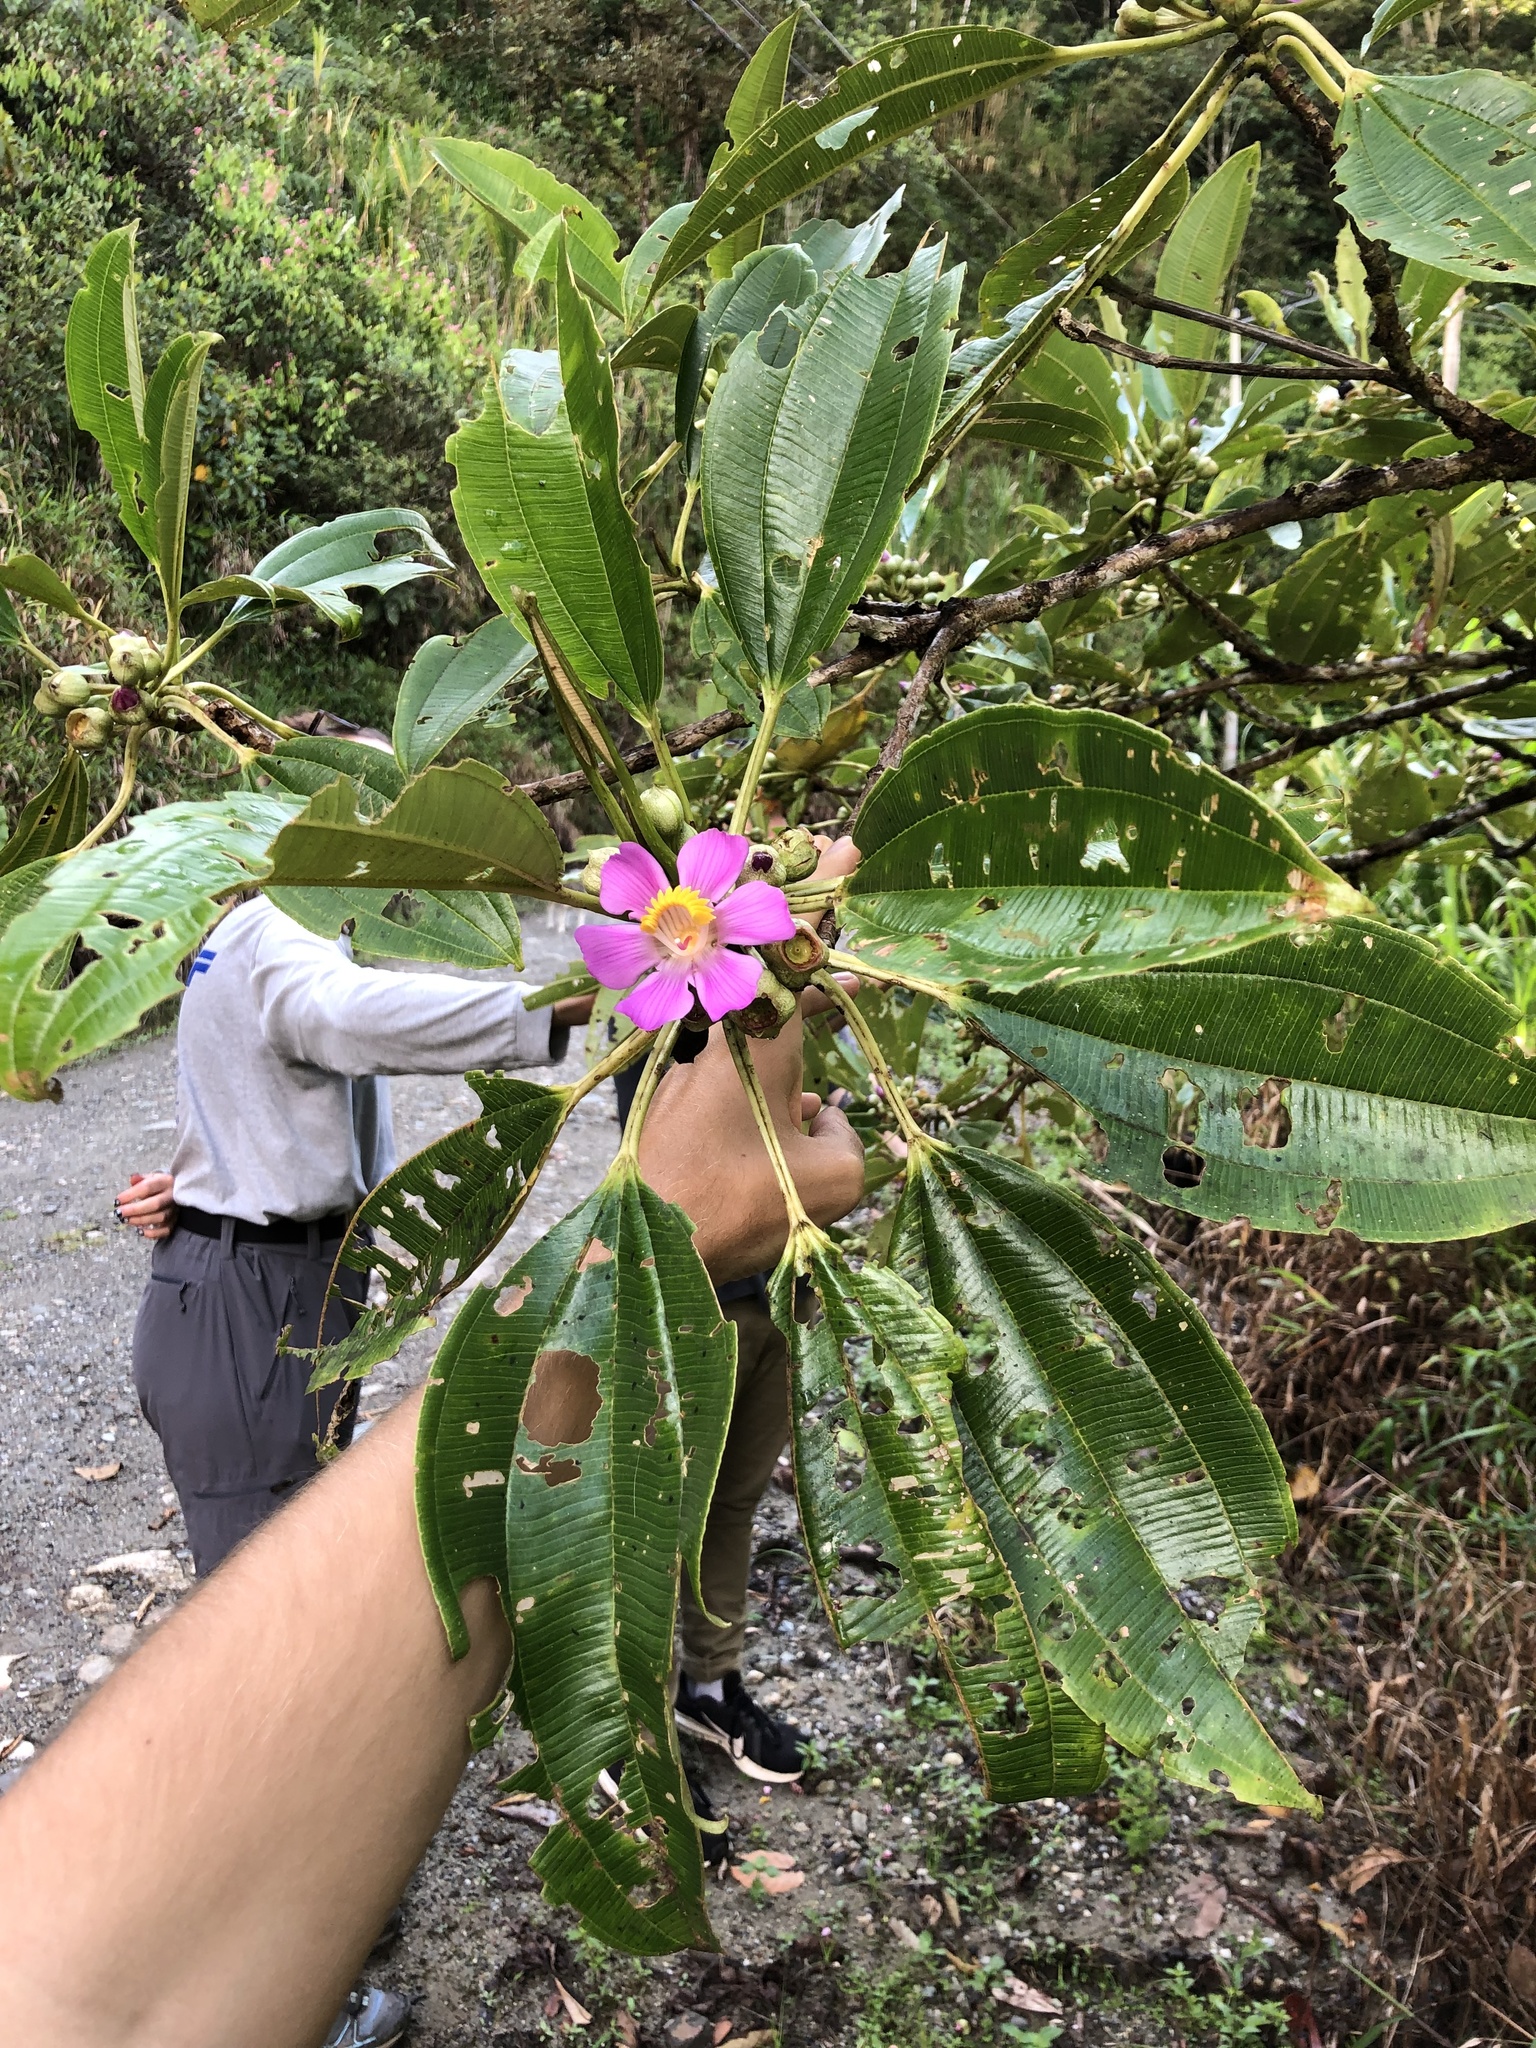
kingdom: Plantae
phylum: Tracheophyta
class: Magnoliopsida
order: Myrtales
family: Melastomataceae
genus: Blakea
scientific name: Blakea subvaginata
